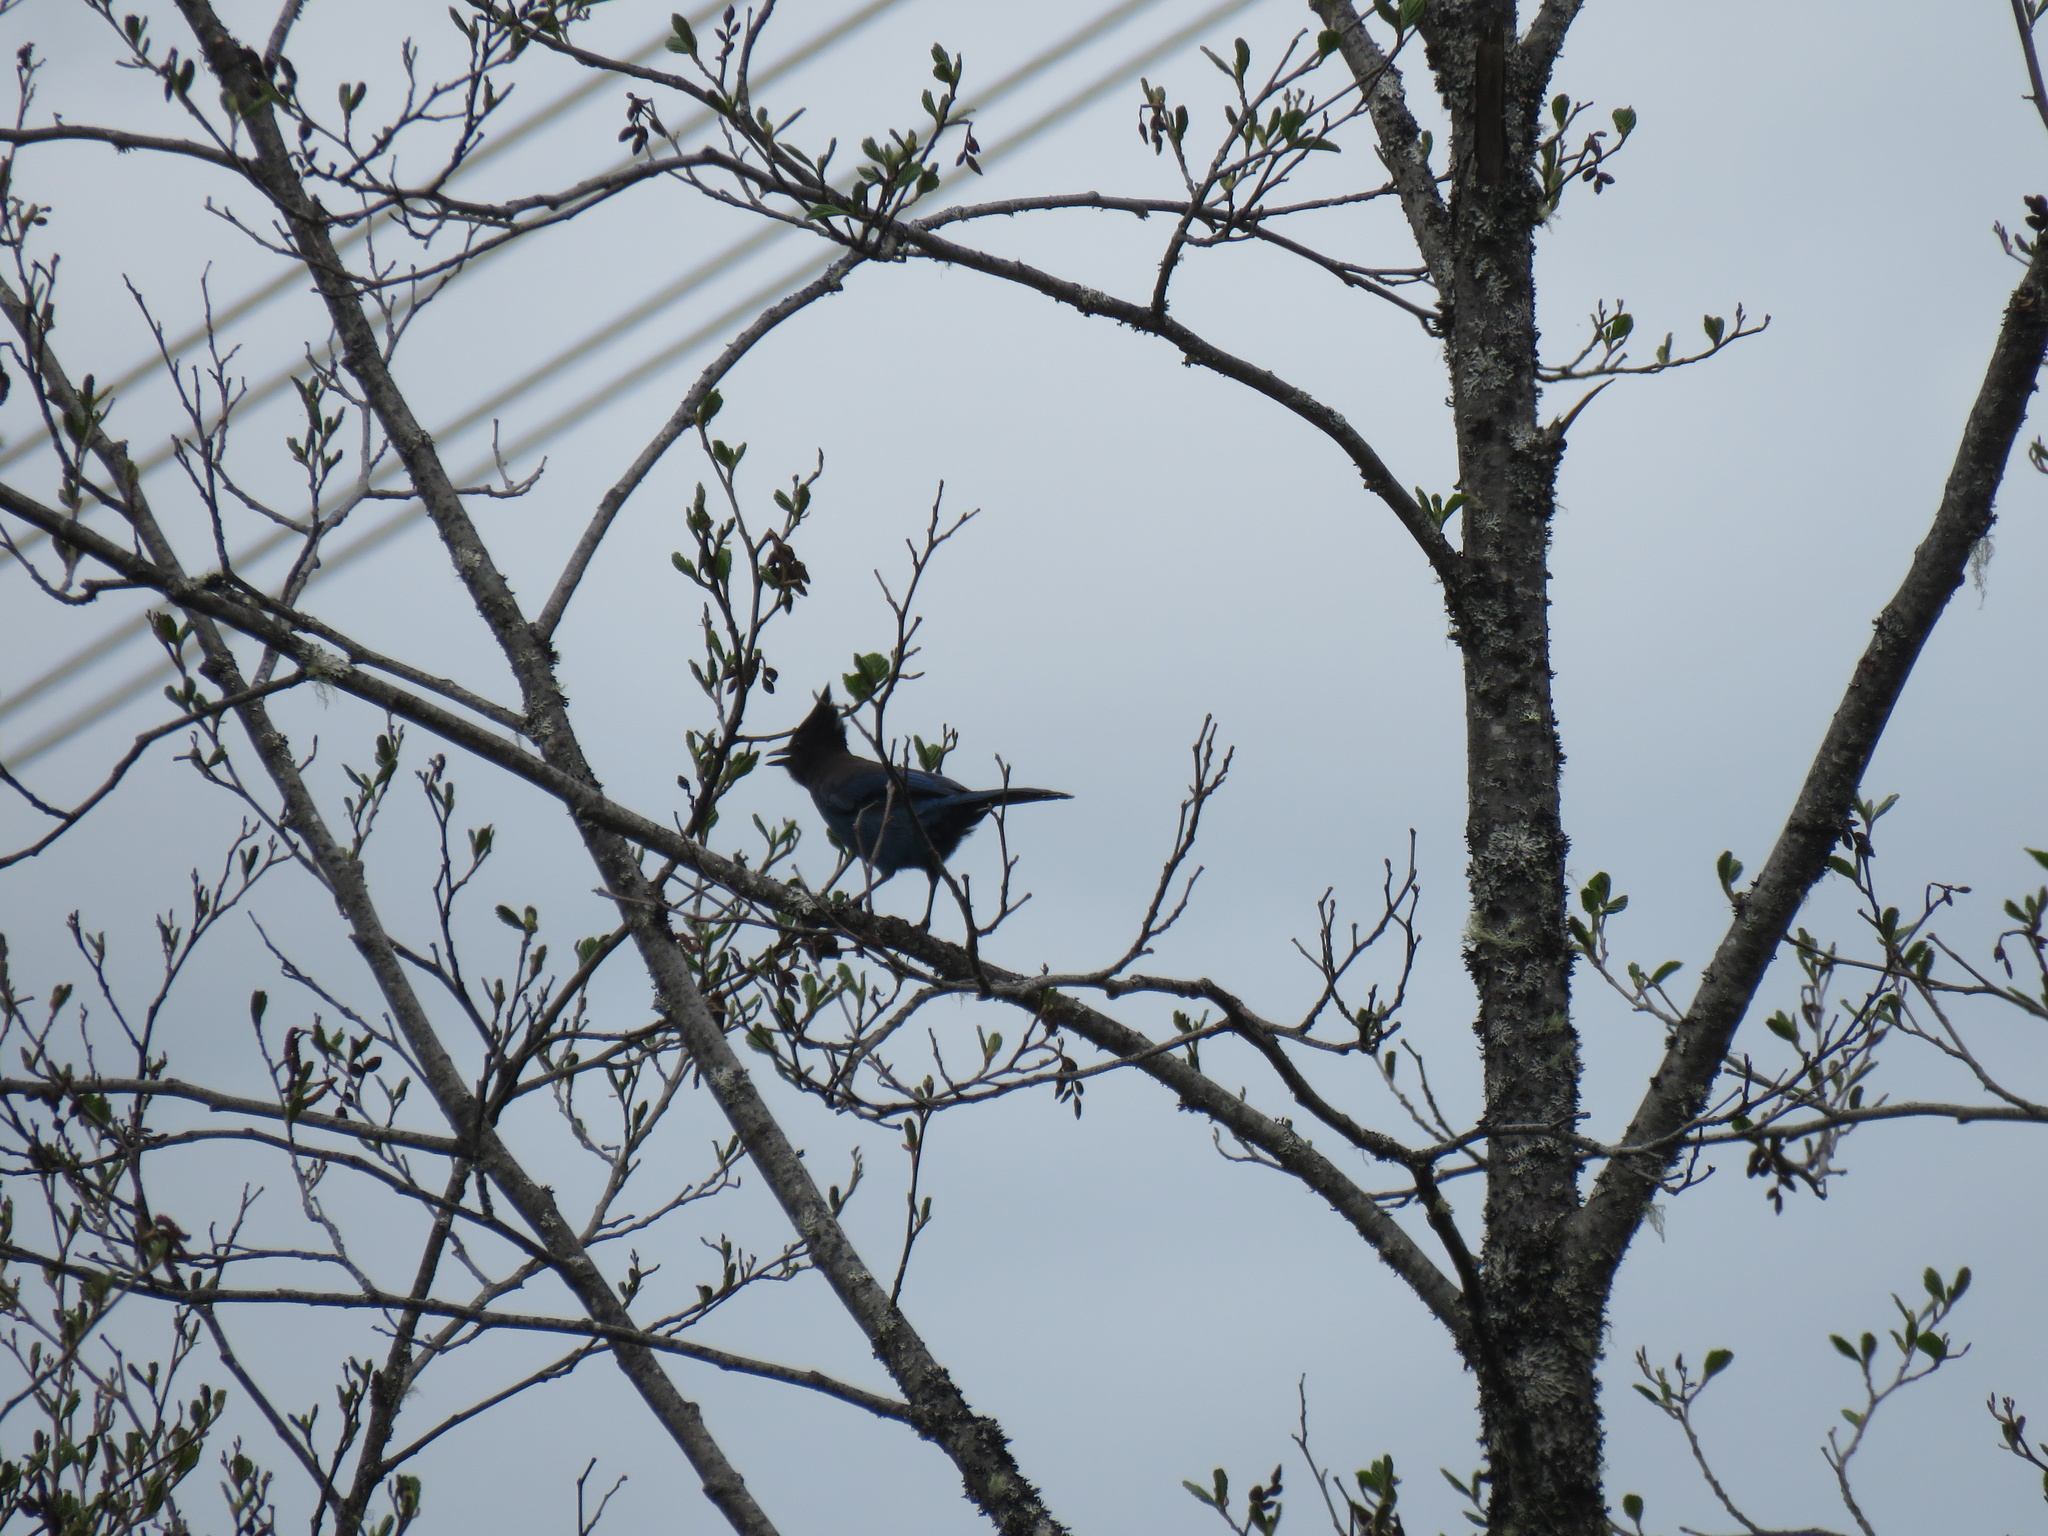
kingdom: Animalia
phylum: Chordata
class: Aves
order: Passeriformes
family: Corvidae
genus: Cyanocitta
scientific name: Cyanocitta stelleri
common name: Steller's jay
